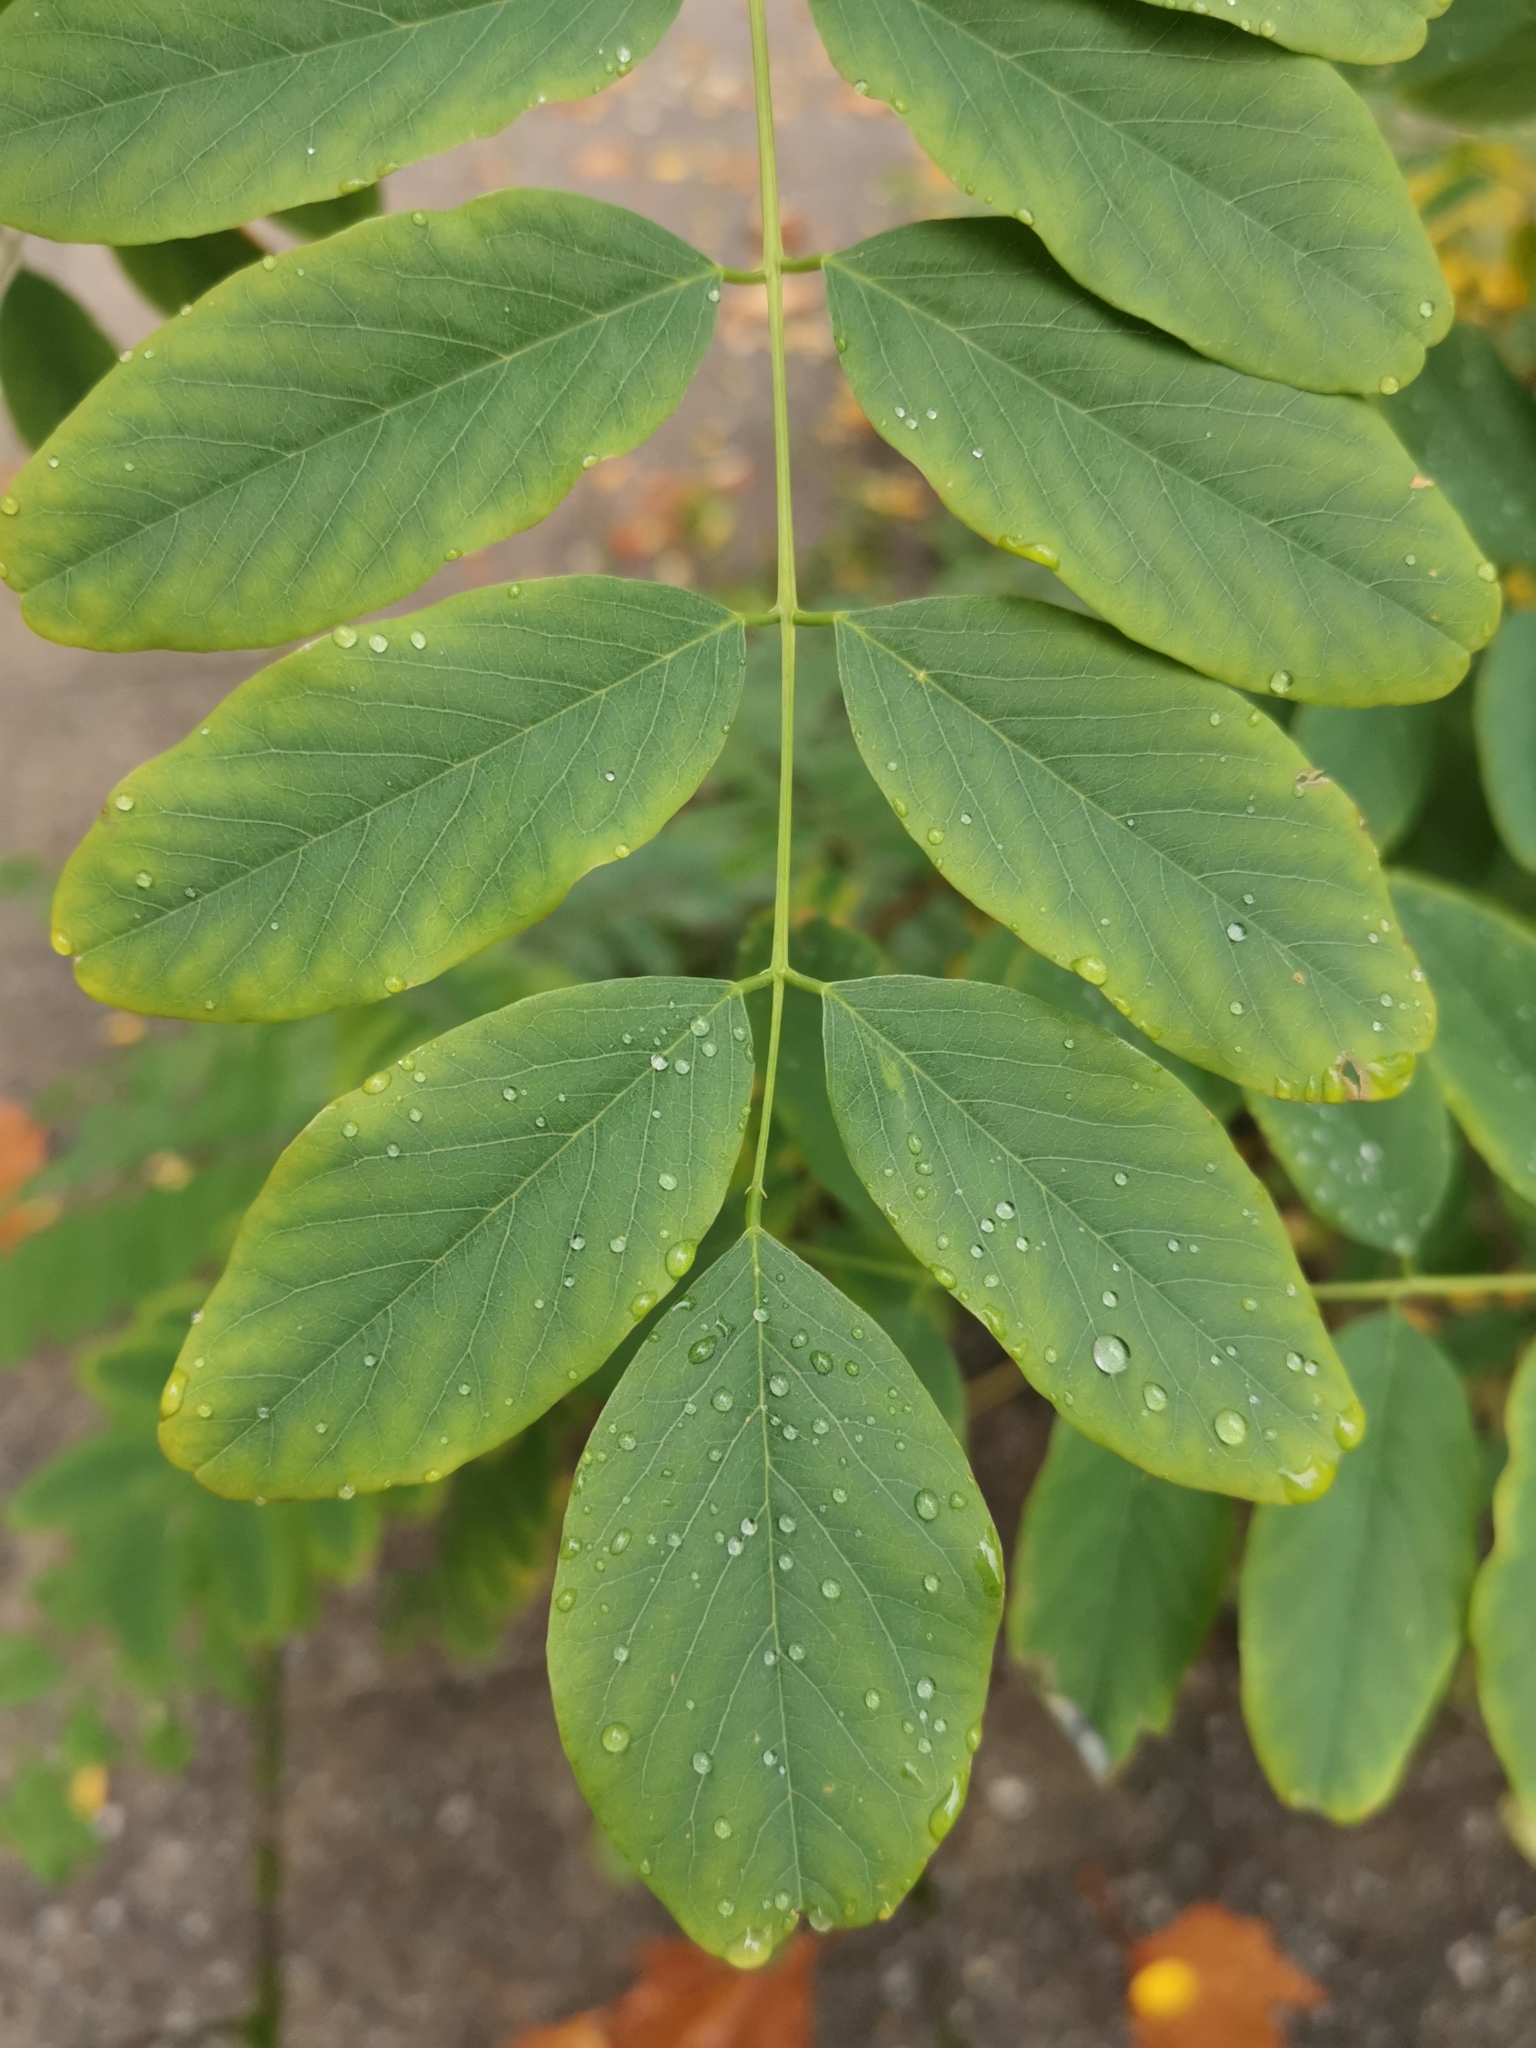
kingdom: Plantae
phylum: Tracheophyta
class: Magnoliopsida
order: Fabales
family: Fabaceae
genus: Robinia
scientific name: Robinia pseudoacacia
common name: Black locust
